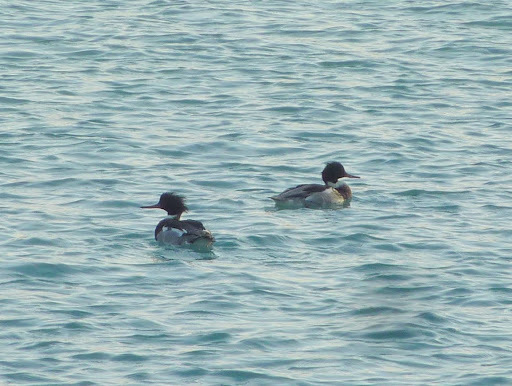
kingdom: Animalia
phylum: Chordata
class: Aves
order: Anseriformes
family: Anatidae
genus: Mergus
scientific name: Mergus serrator
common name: Red-breasted merganser
